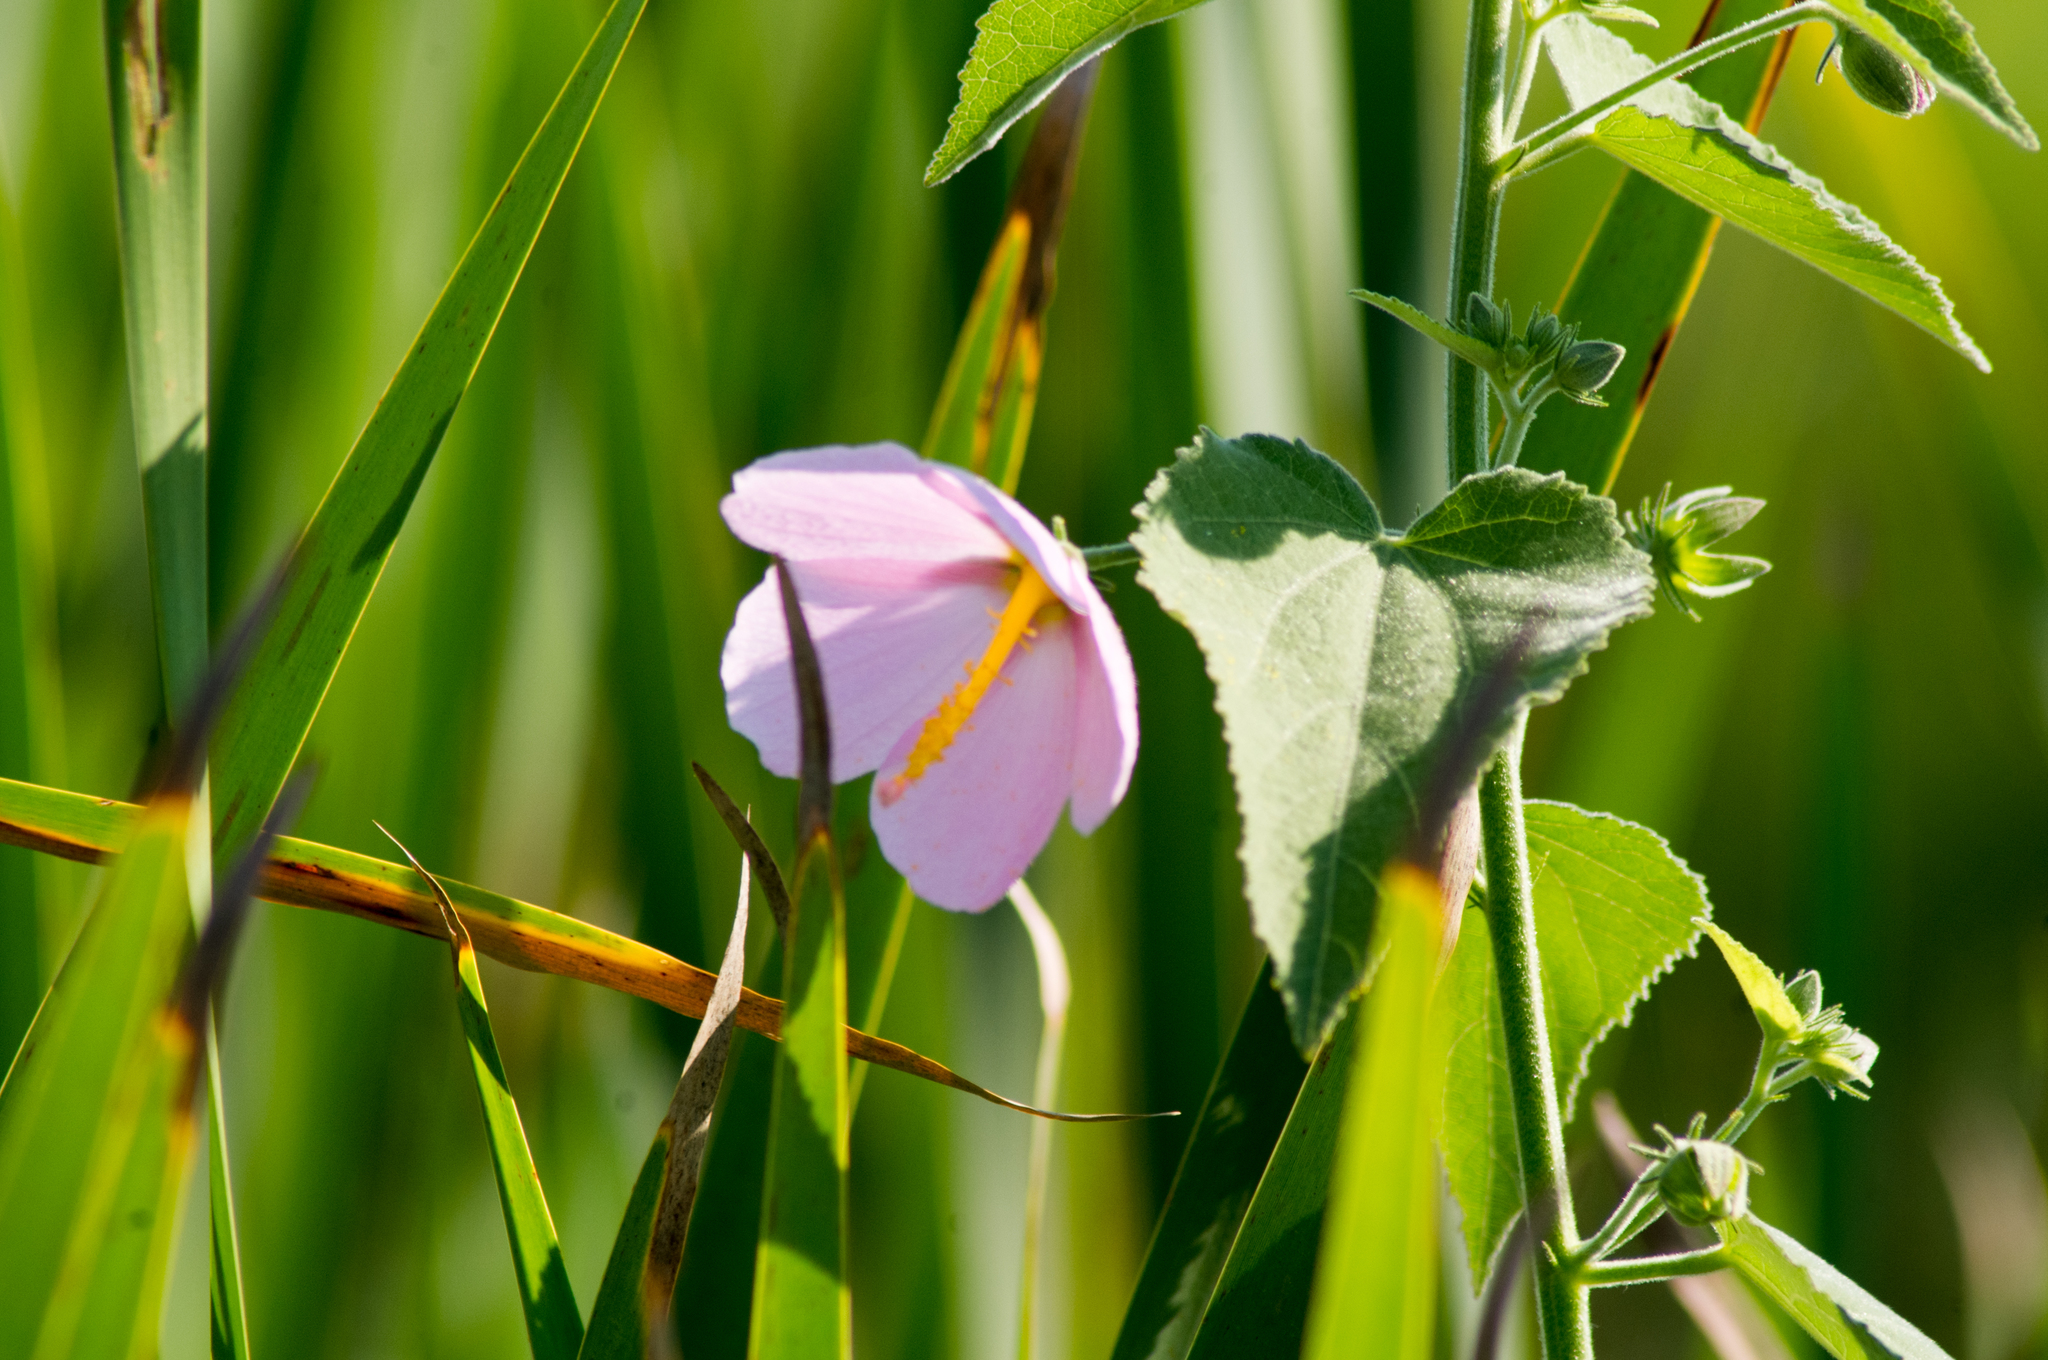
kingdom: Plantae
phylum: Tracheophyta
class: Magnoliopsida
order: Malvales
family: Malvaceae
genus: Kosteletzkya
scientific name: Kosteletzkya pentacarpos
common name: Virginia saltmarsh mallow
